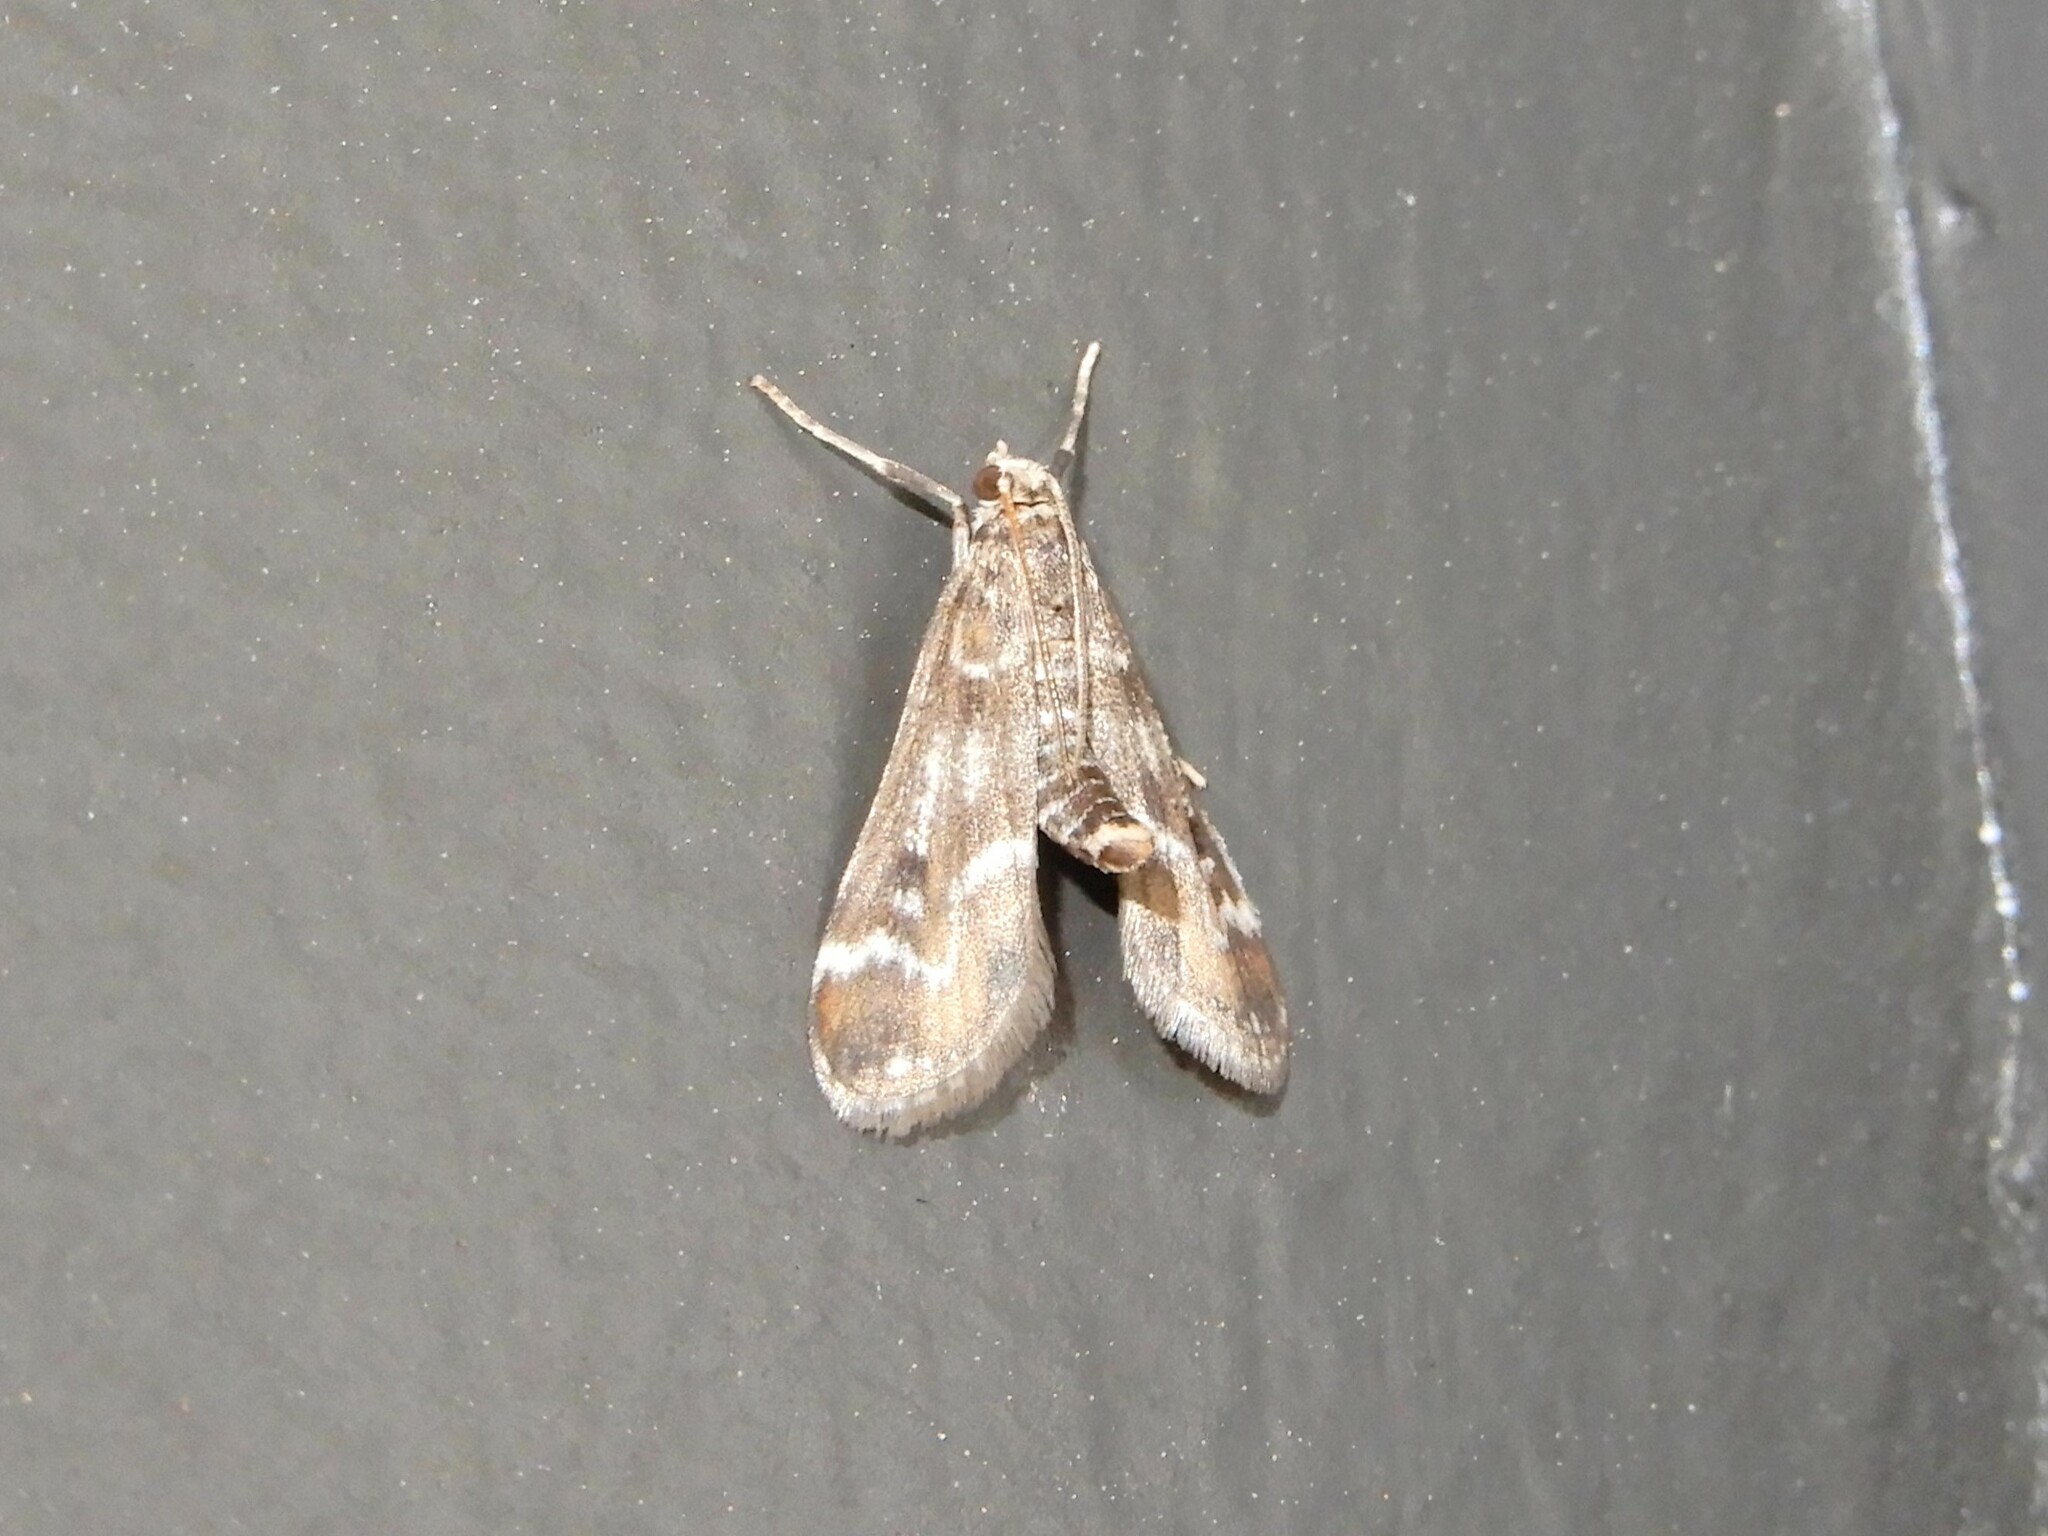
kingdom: Animalia
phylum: Arthropoda
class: Insecta
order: Lepidoptera
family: Crambidae
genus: Hygraula
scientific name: Hygraula nitens
